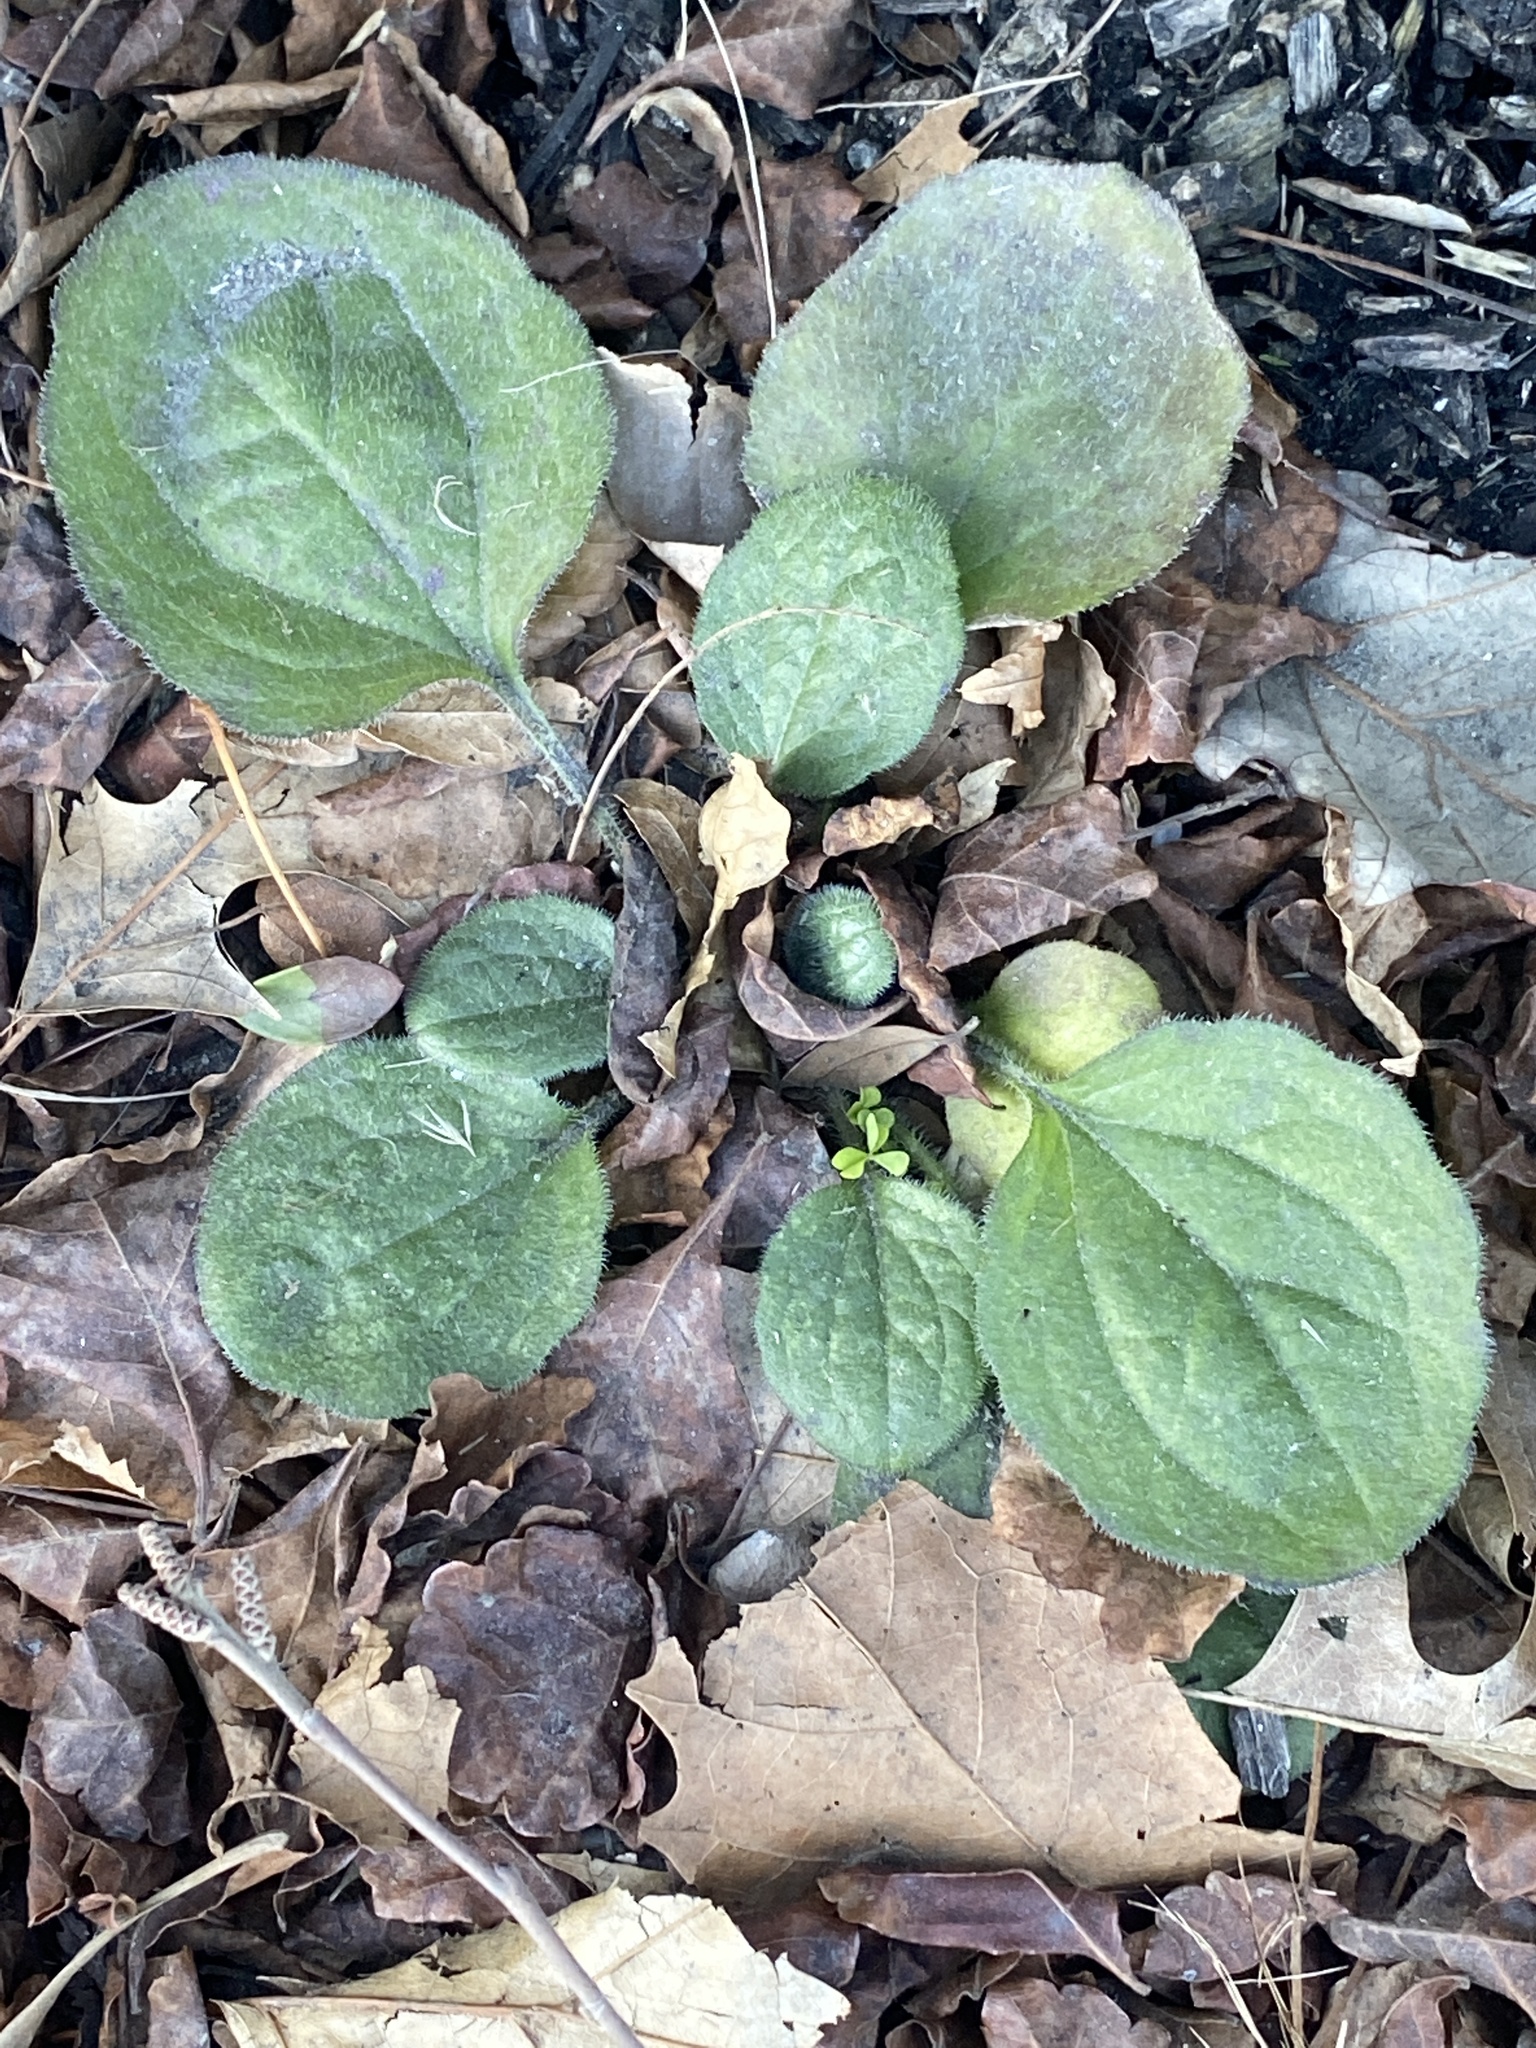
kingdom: Plantae
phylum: Tracheophyta
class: Magnoliopsida
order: Asterales
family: Asteraceae
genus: Rudbeckia
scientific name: Rudbeckia hirta
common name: Black-eyed-susan
